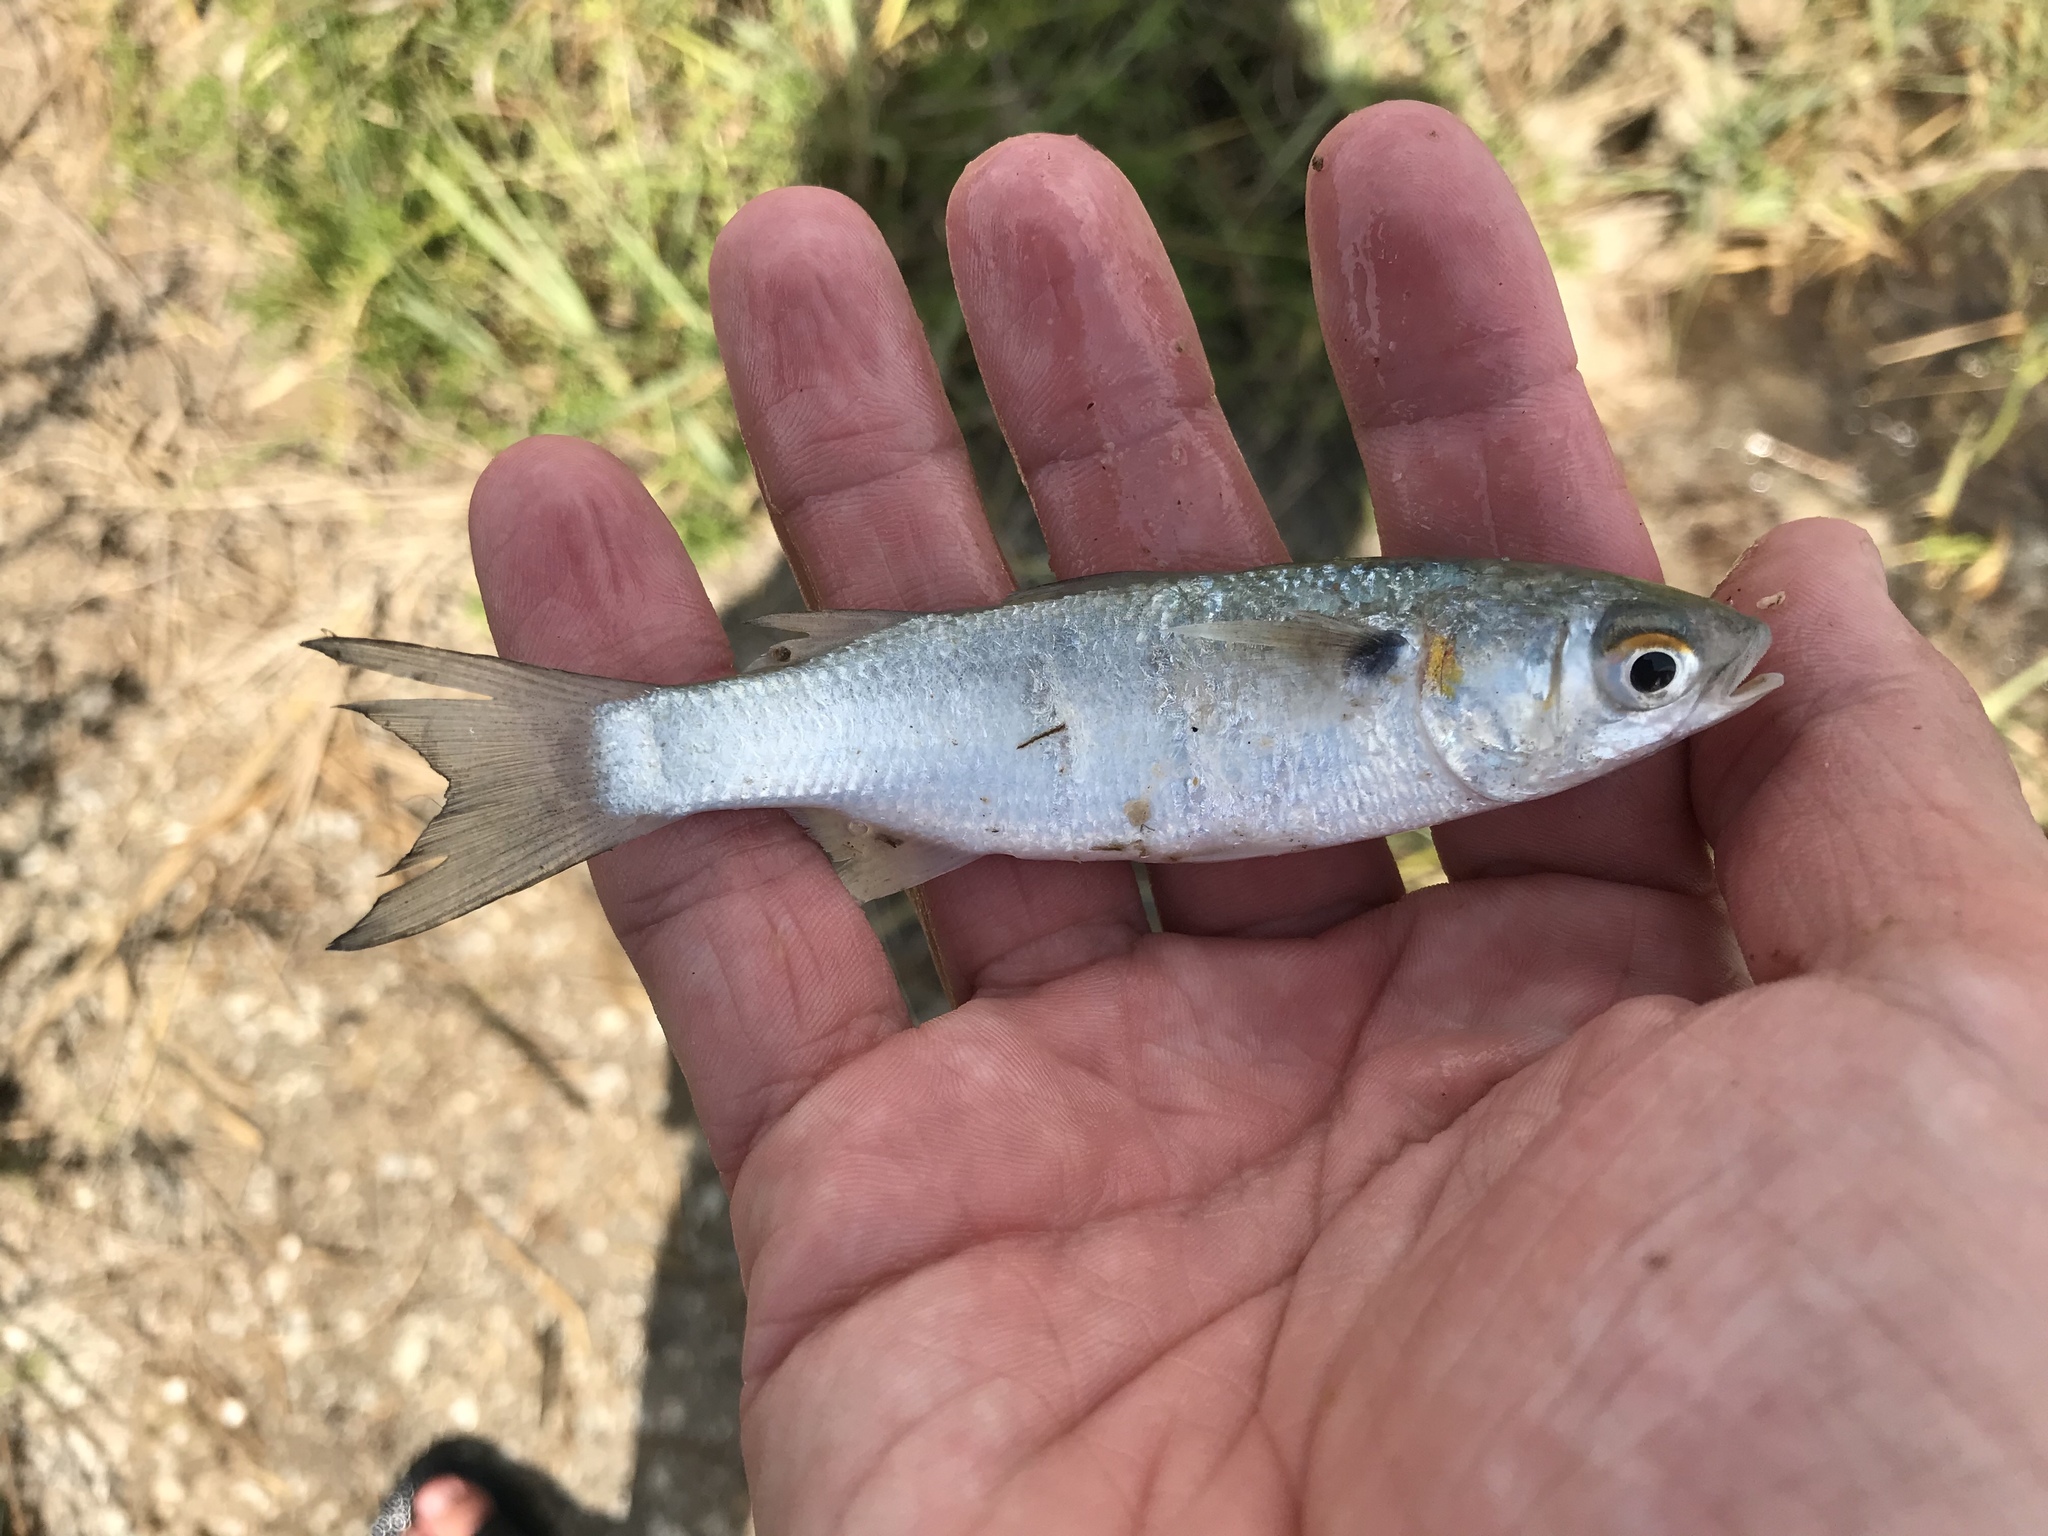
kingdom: Animalia
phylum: Chordata
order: Mugiliformes
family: Mugilidae
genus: Mugil
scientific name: Mugil curema
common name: White mullet
